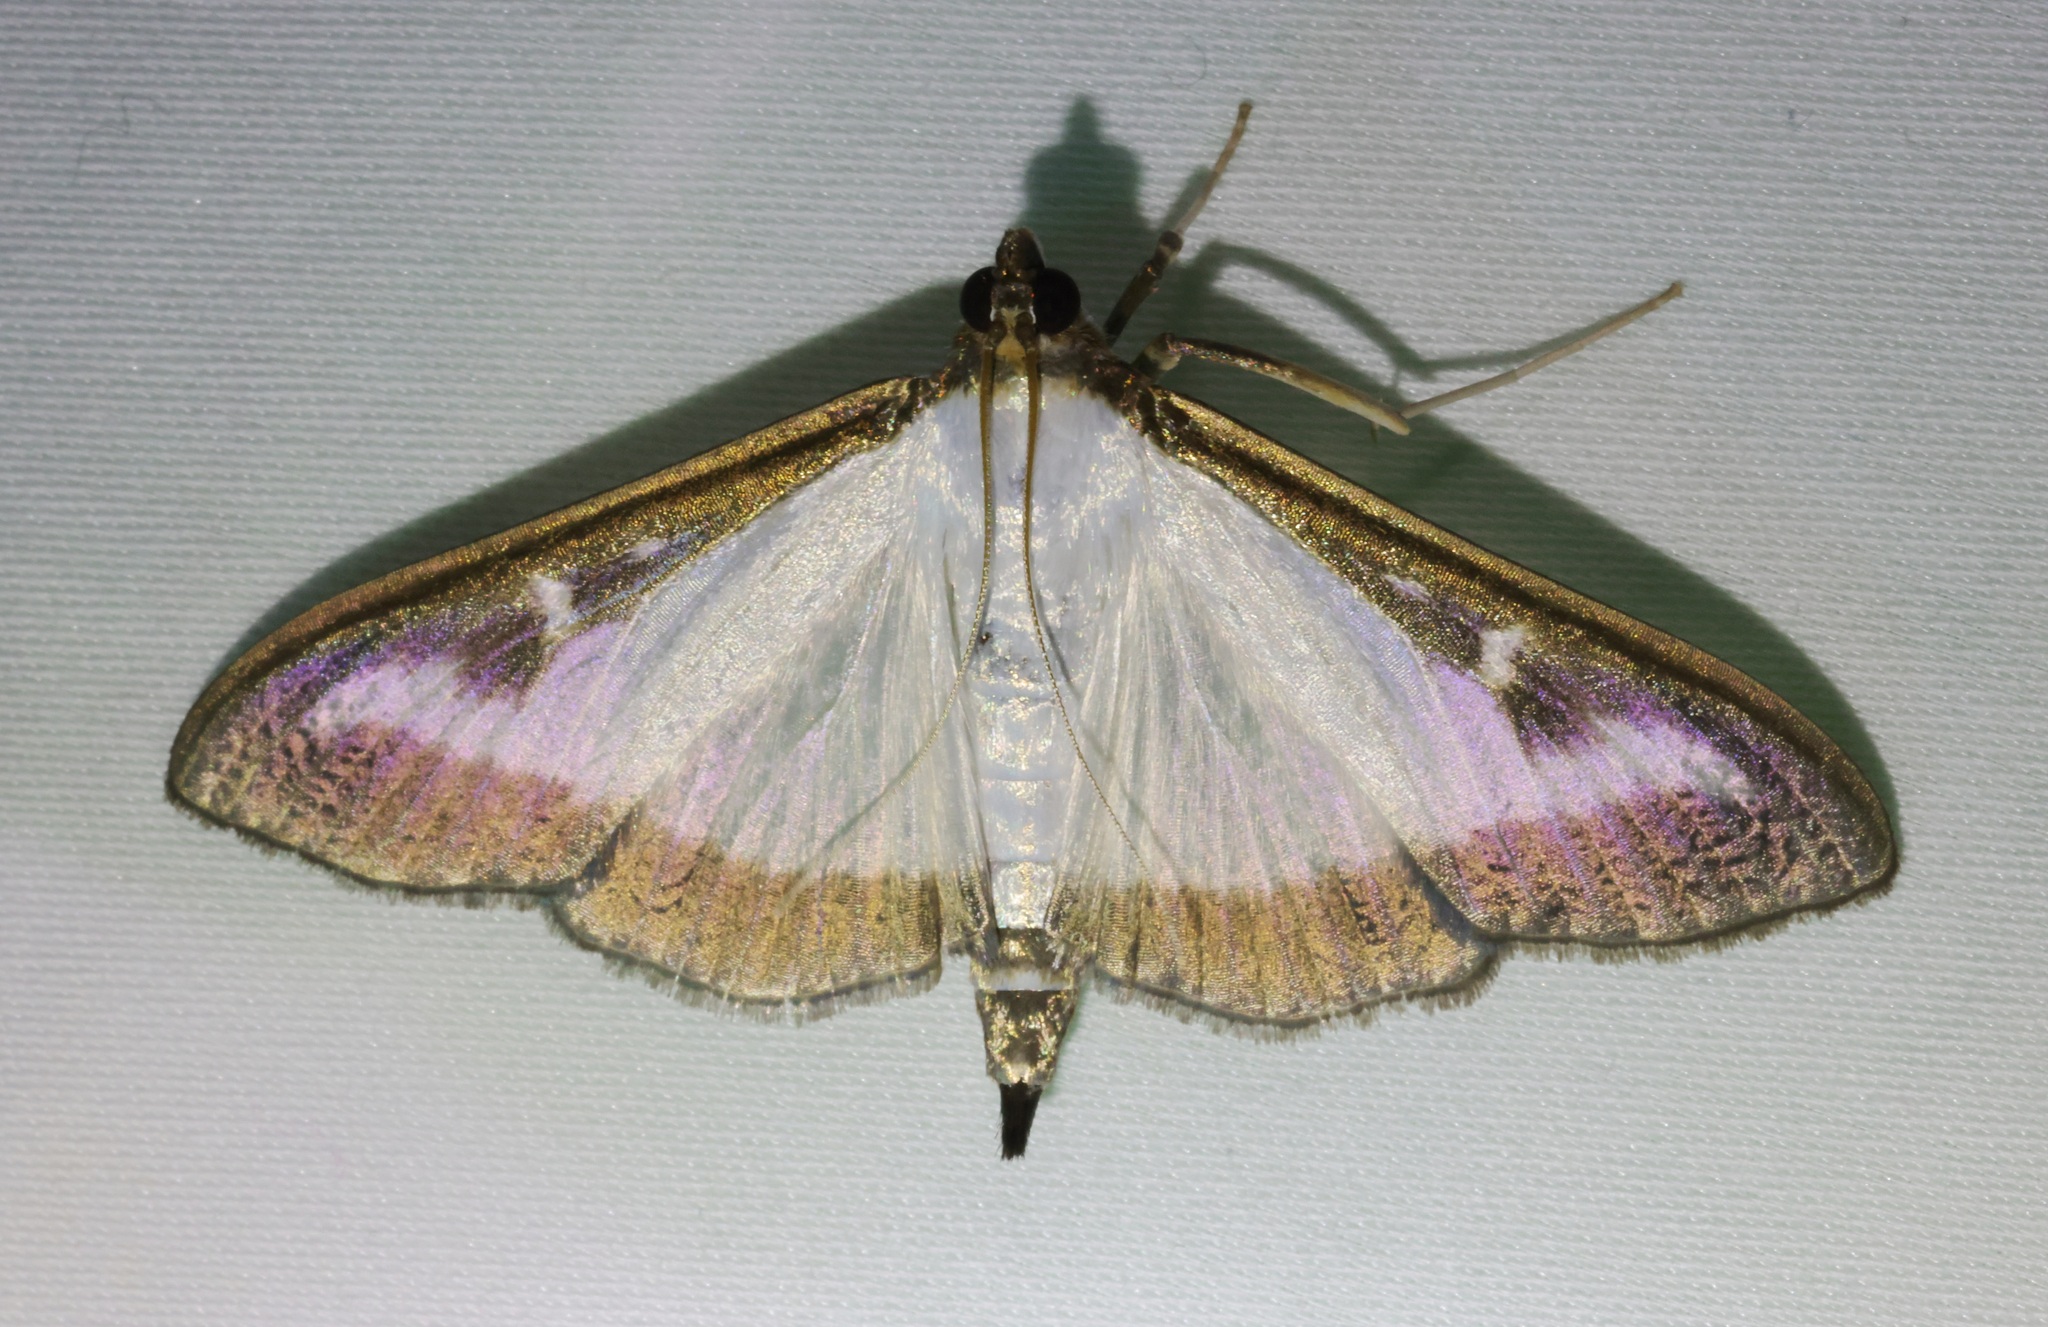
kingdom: Animalia
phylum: Arthropoda
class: Insecta
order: Lepidoptera
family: Crambidae
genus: Cydalima
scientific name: Cydalima perspectalis
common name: Box tree moth
